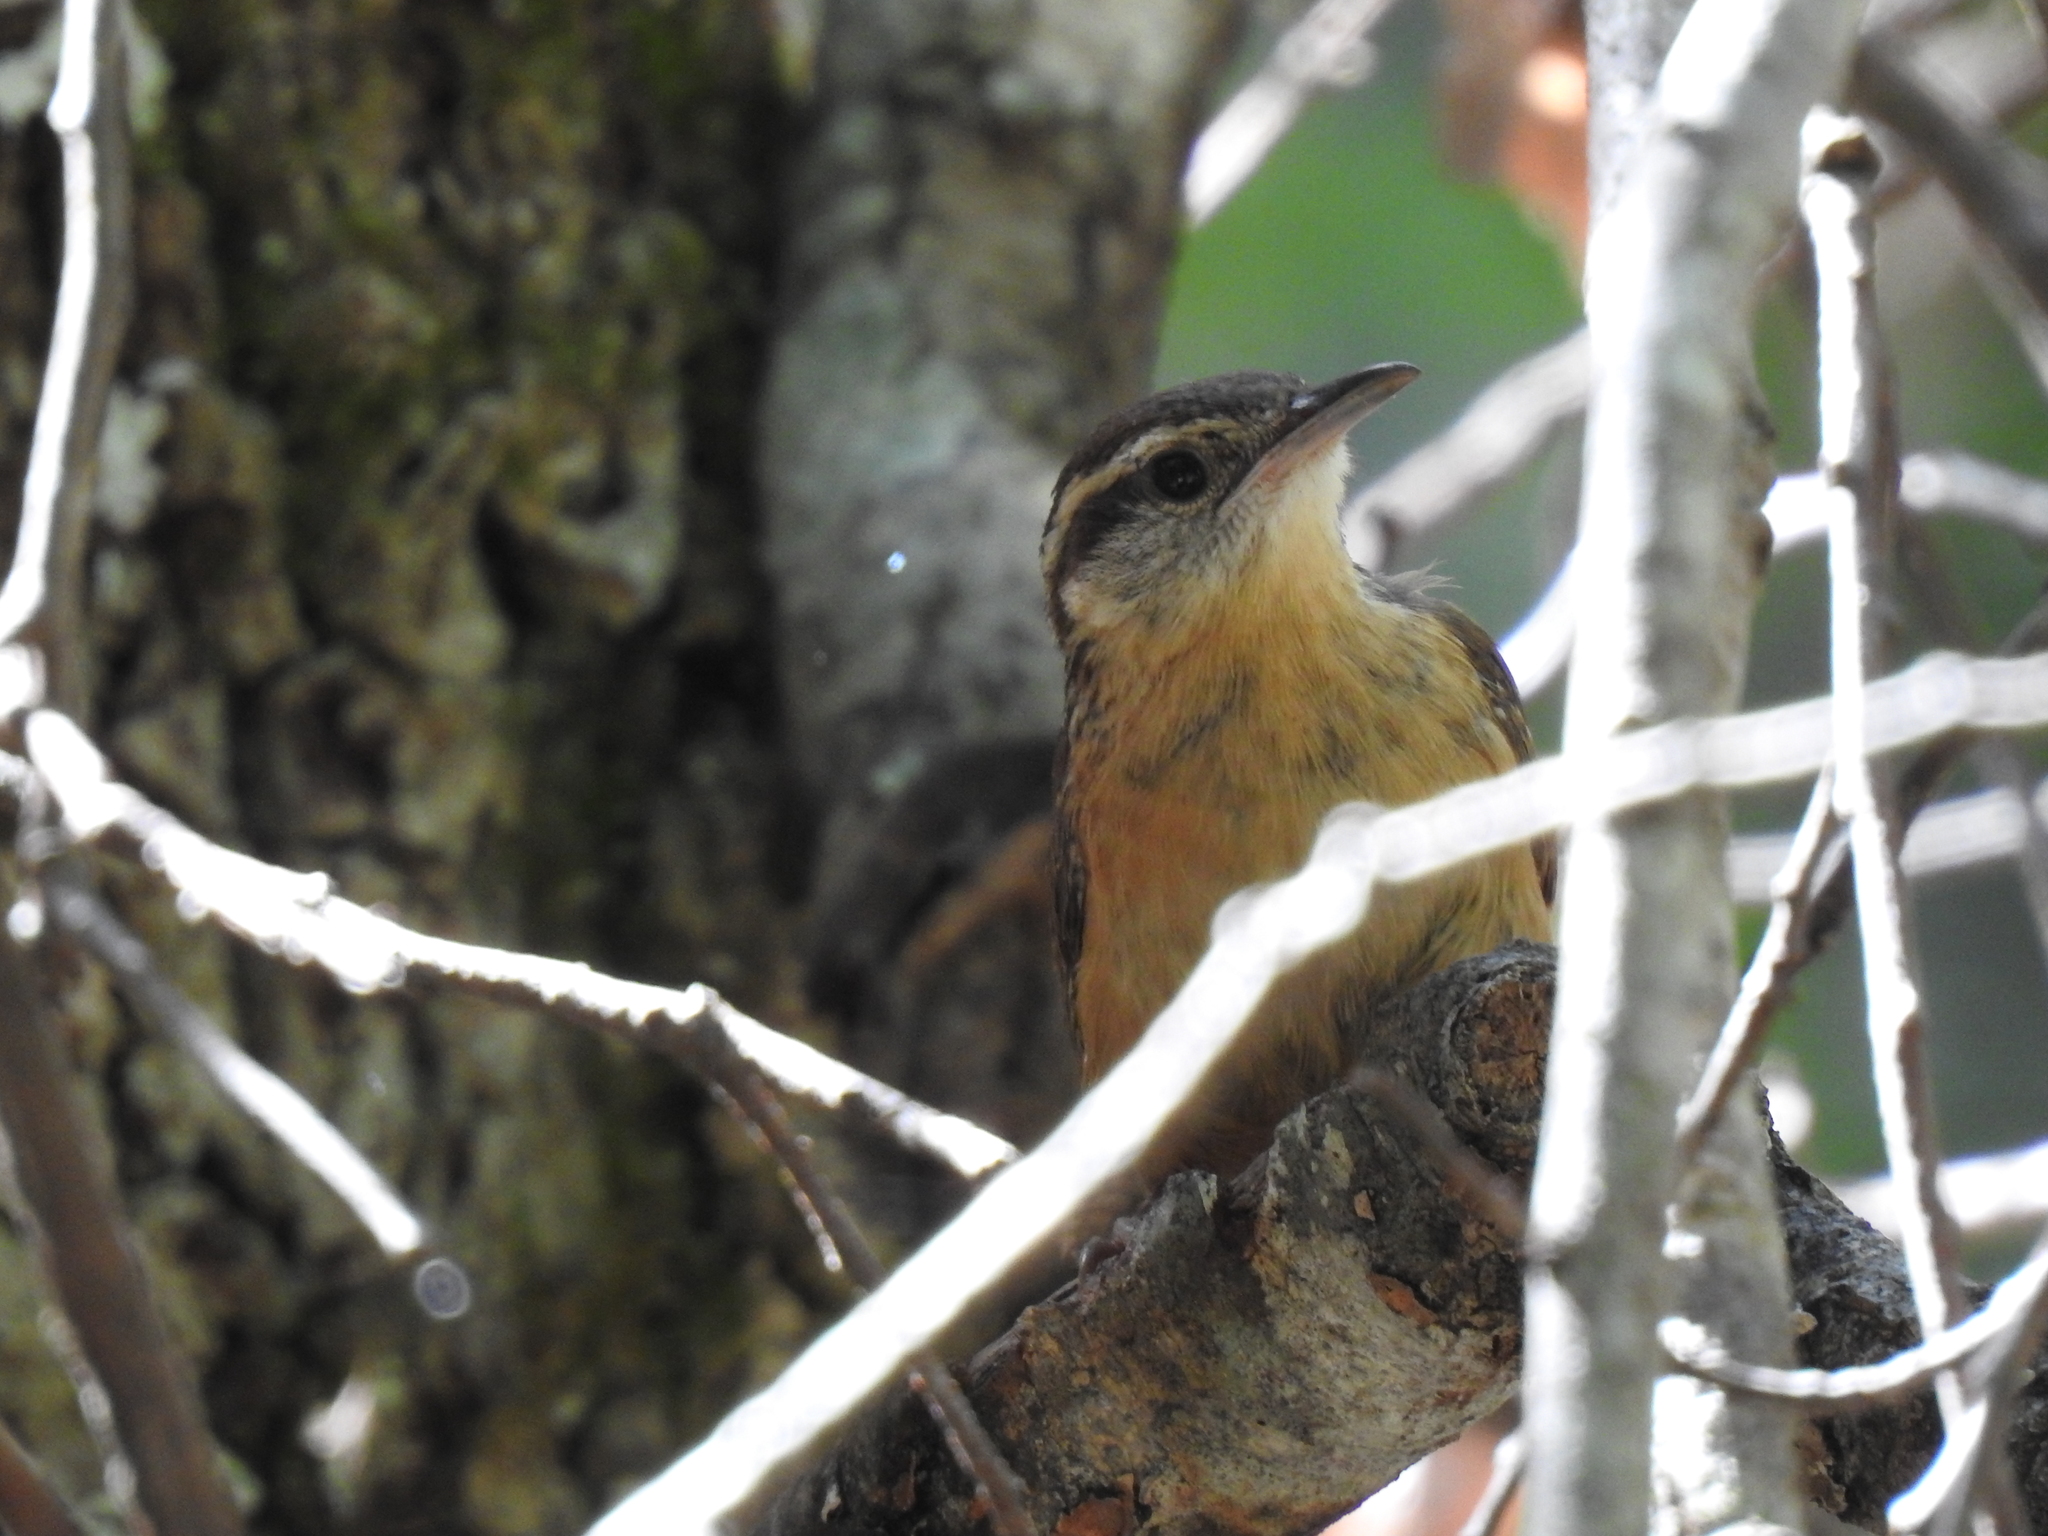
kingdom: Animalia
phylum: Chordata
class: Aves
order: Passeriformes
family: Troglodytidae
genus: Thryothorus
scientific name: Thryothorus ludovicianus
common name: Carolina wren
